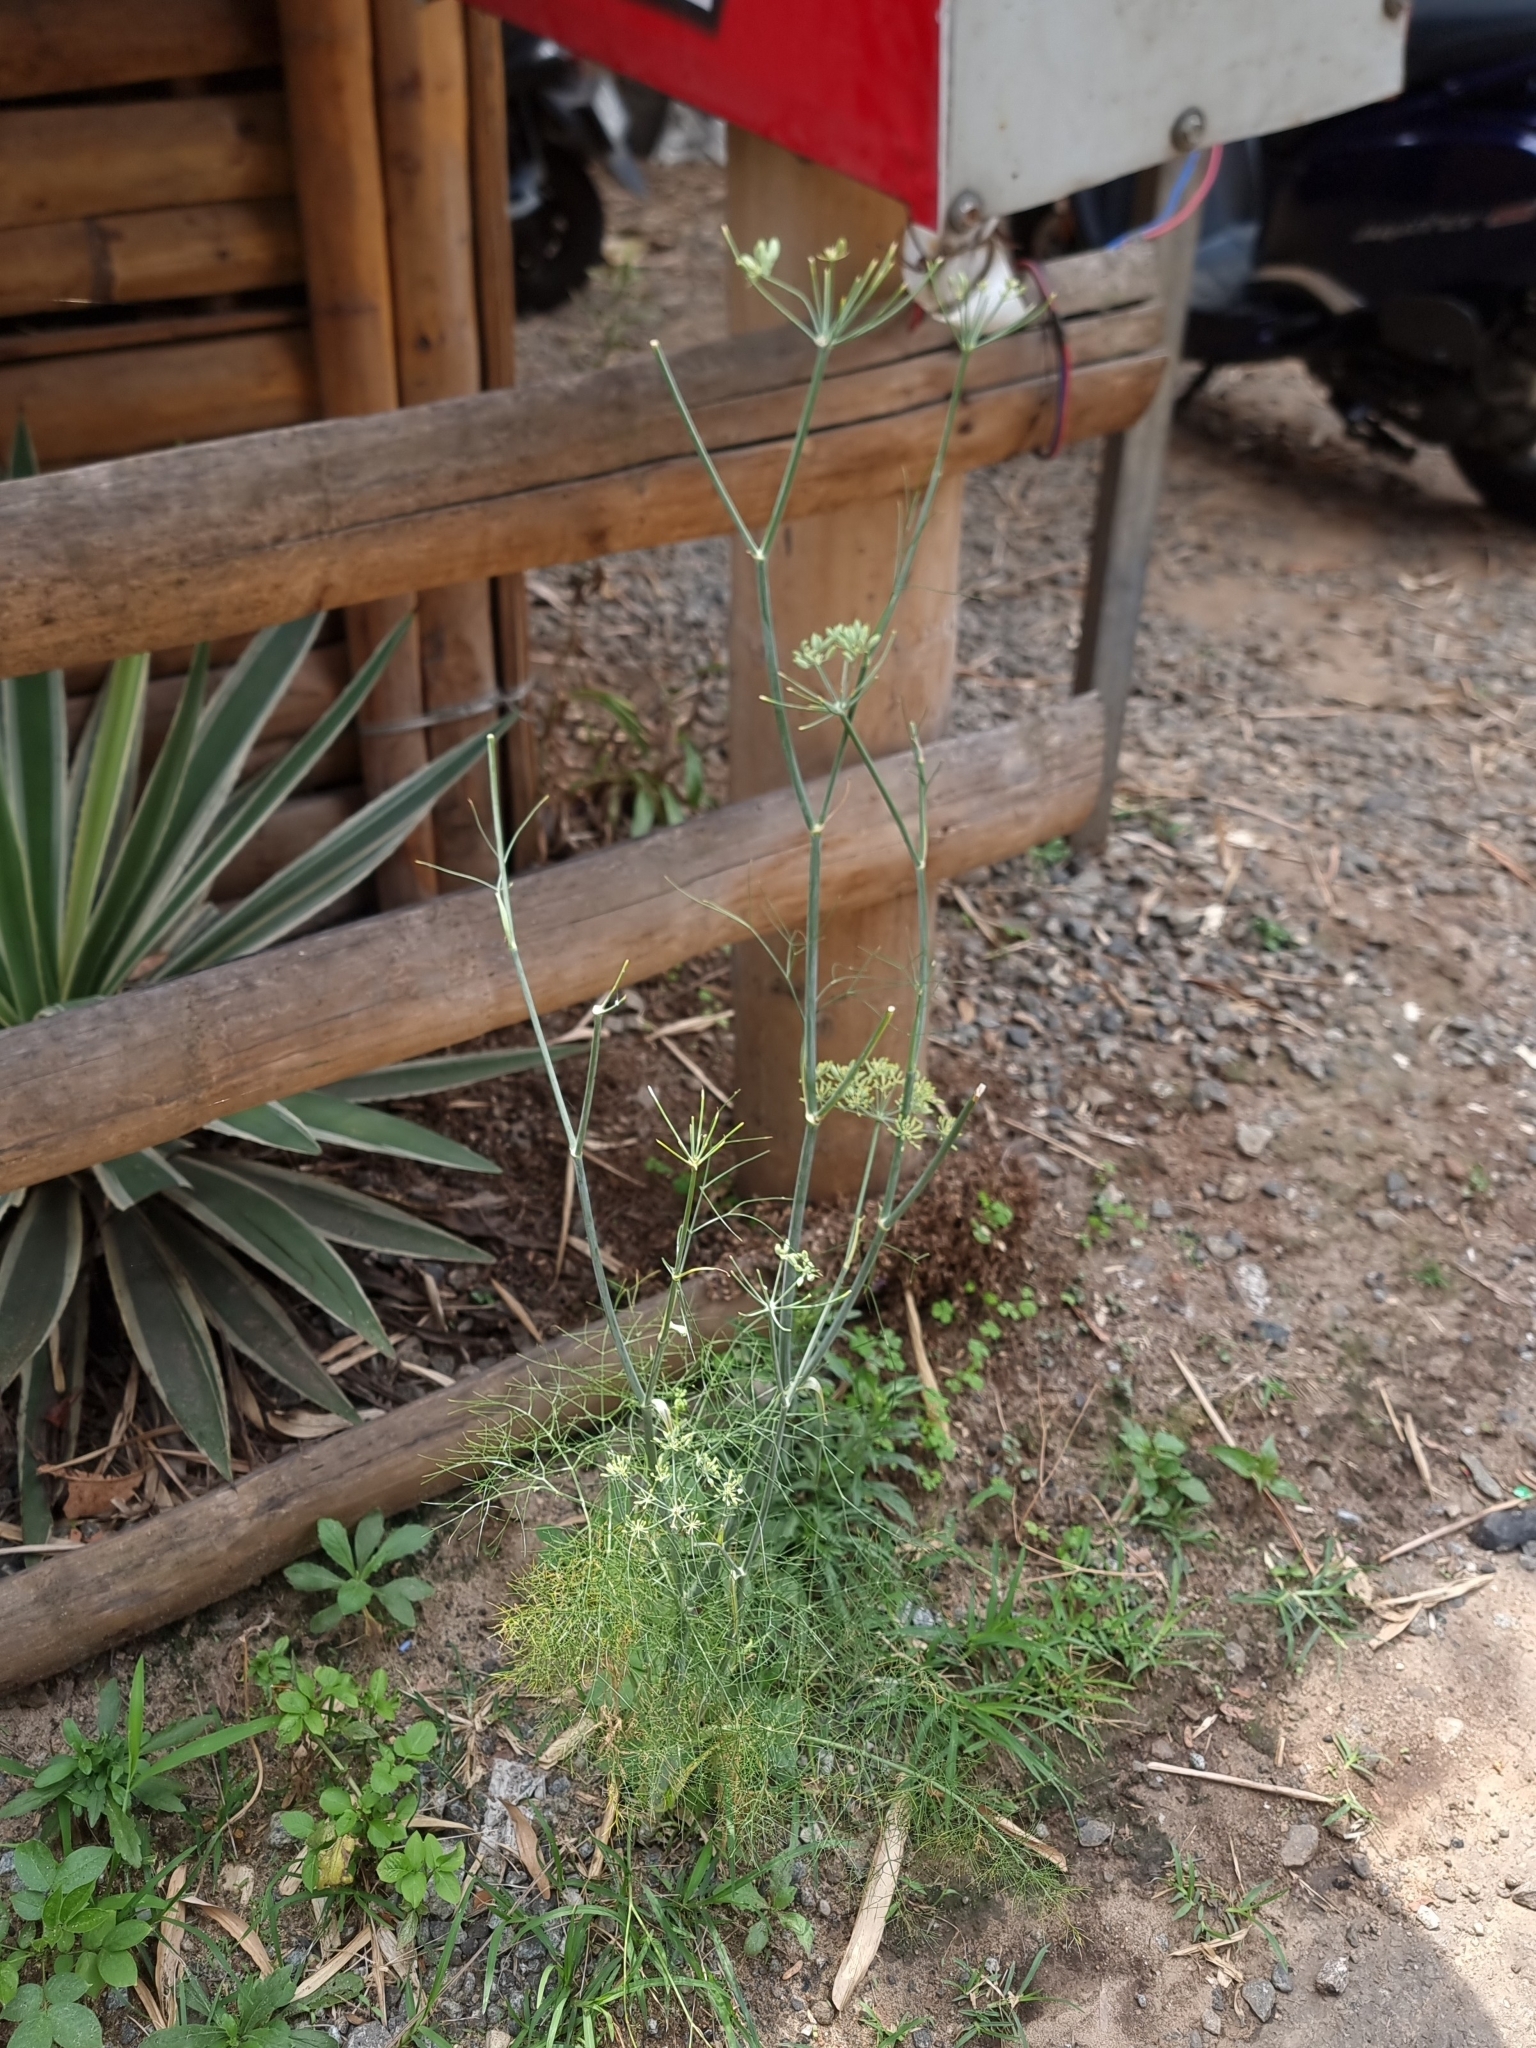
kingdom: Plantae
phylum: Tracheophyta
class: Magnoliopsida
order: Apiales
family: Apiaceae
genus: Foeniculum
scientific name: Foeniculum vulgare
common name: Fennel
